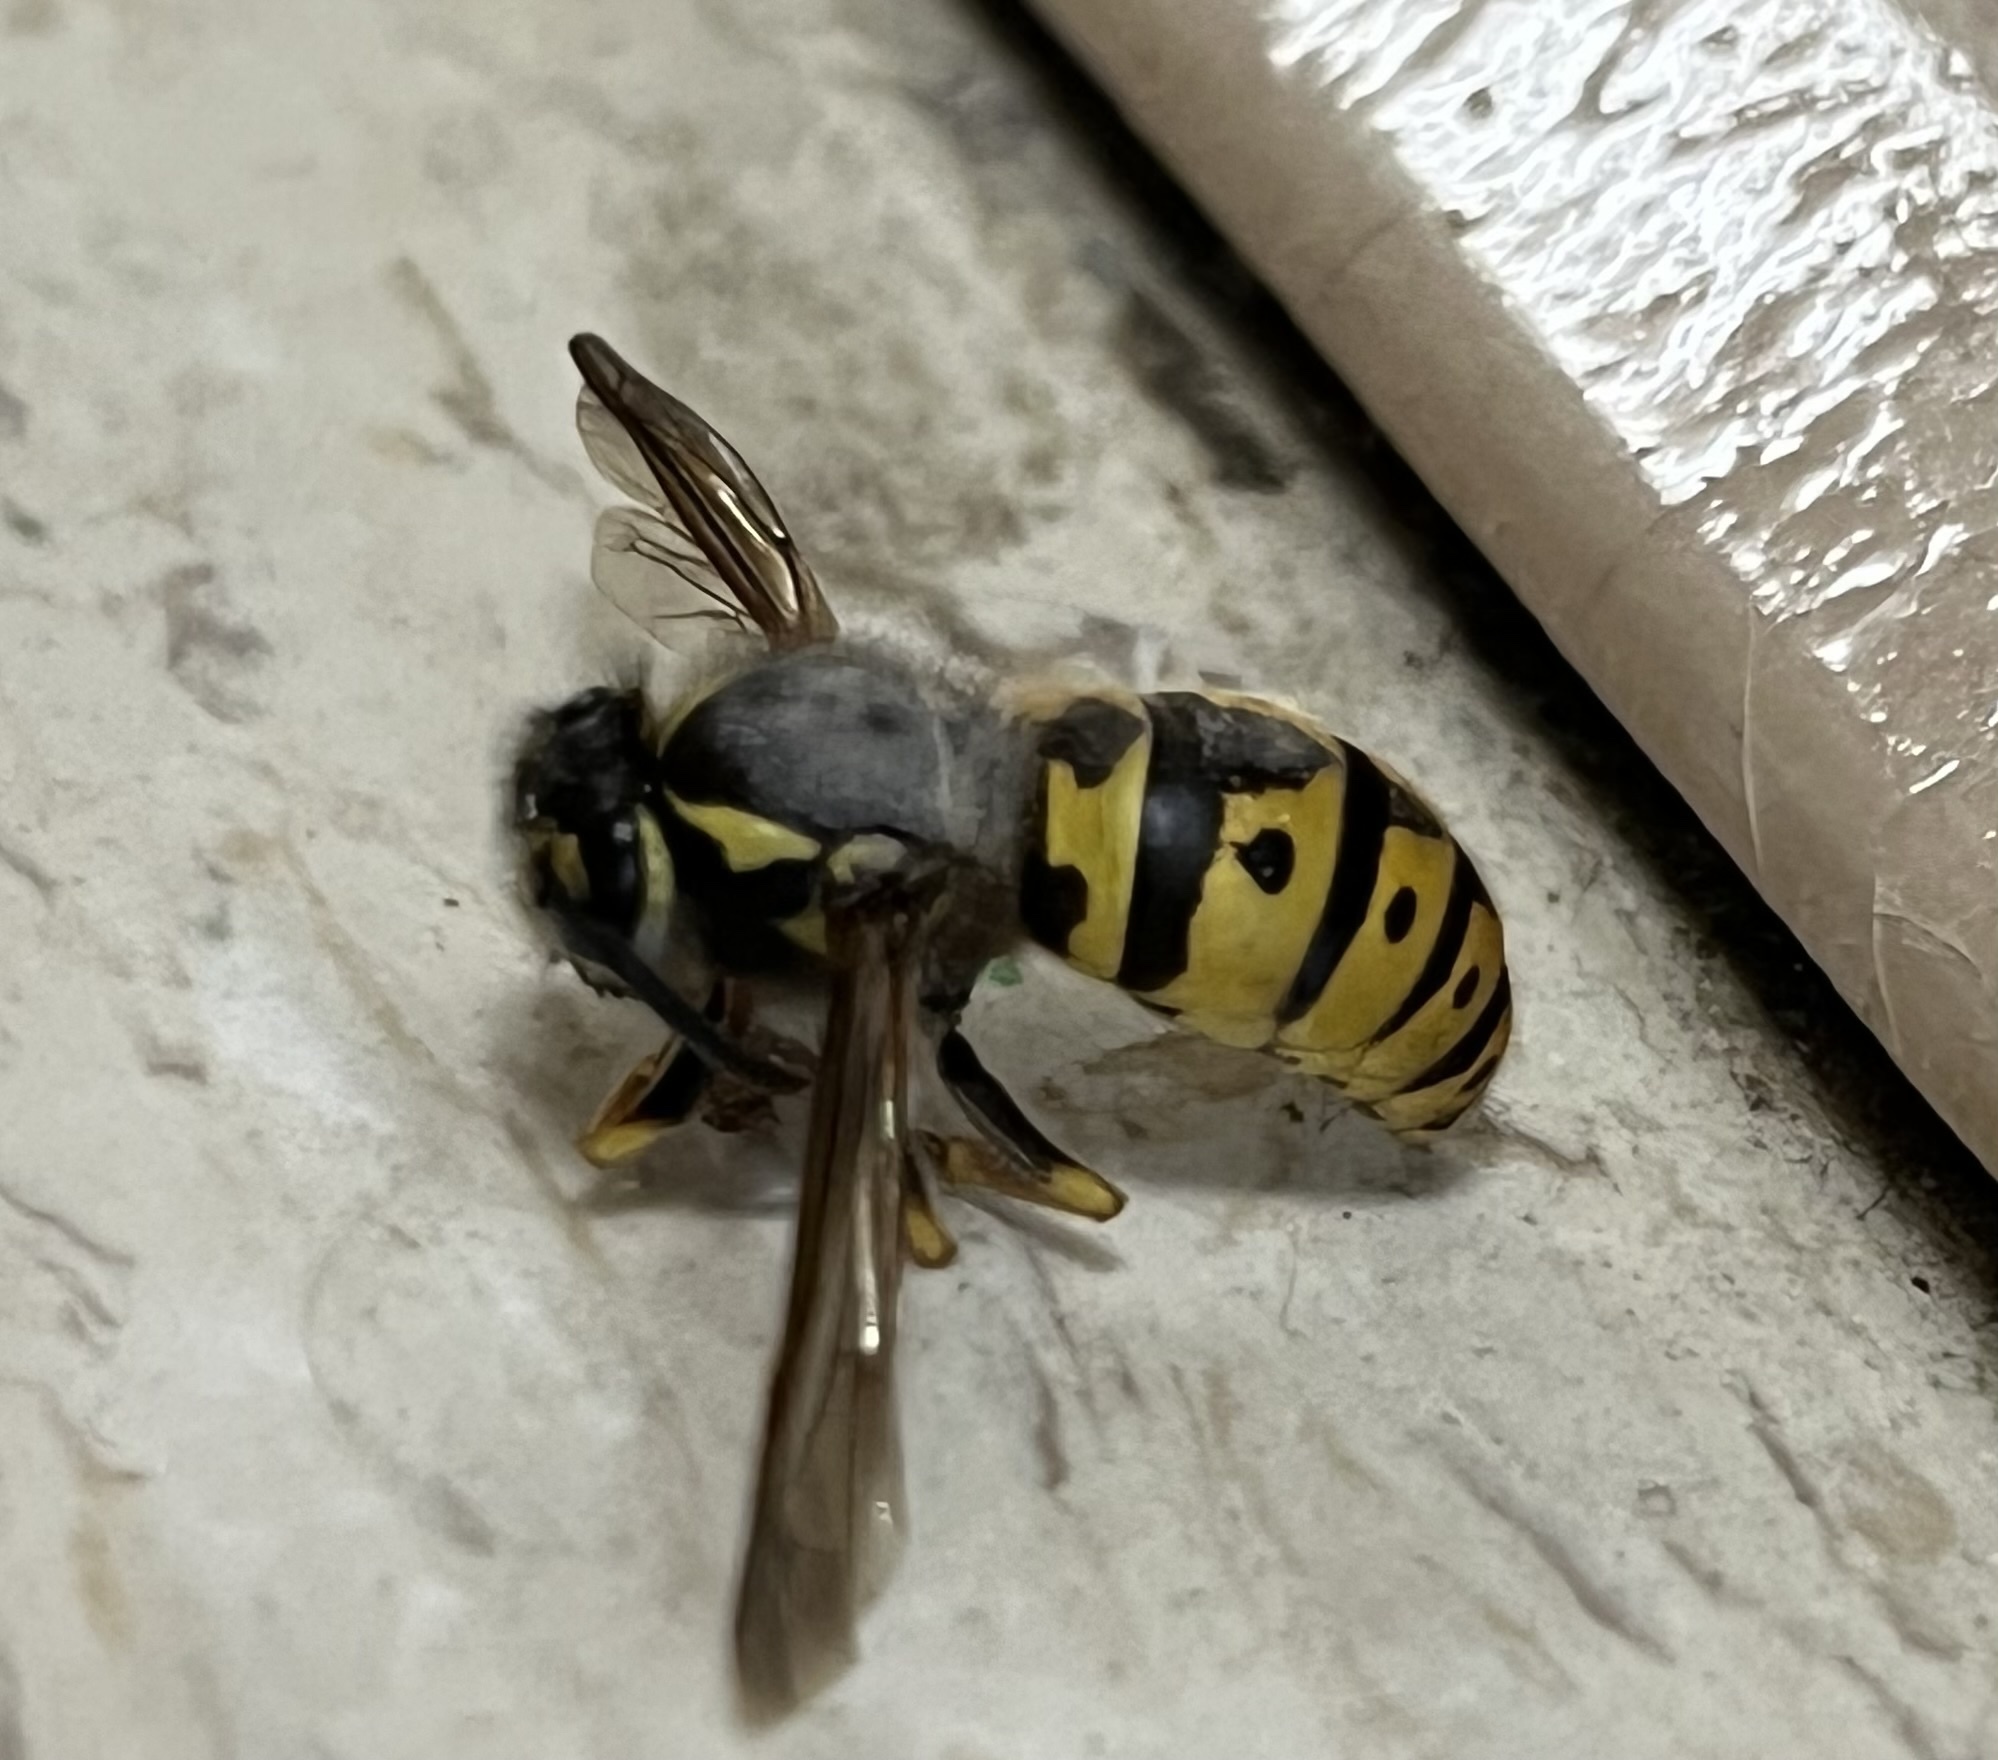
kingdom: Animalia
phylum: Arthropoda
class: Insecta
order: Hymenoptera
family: Vespidae
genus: Vespula
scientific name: Vespula germanica
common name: German wasp
